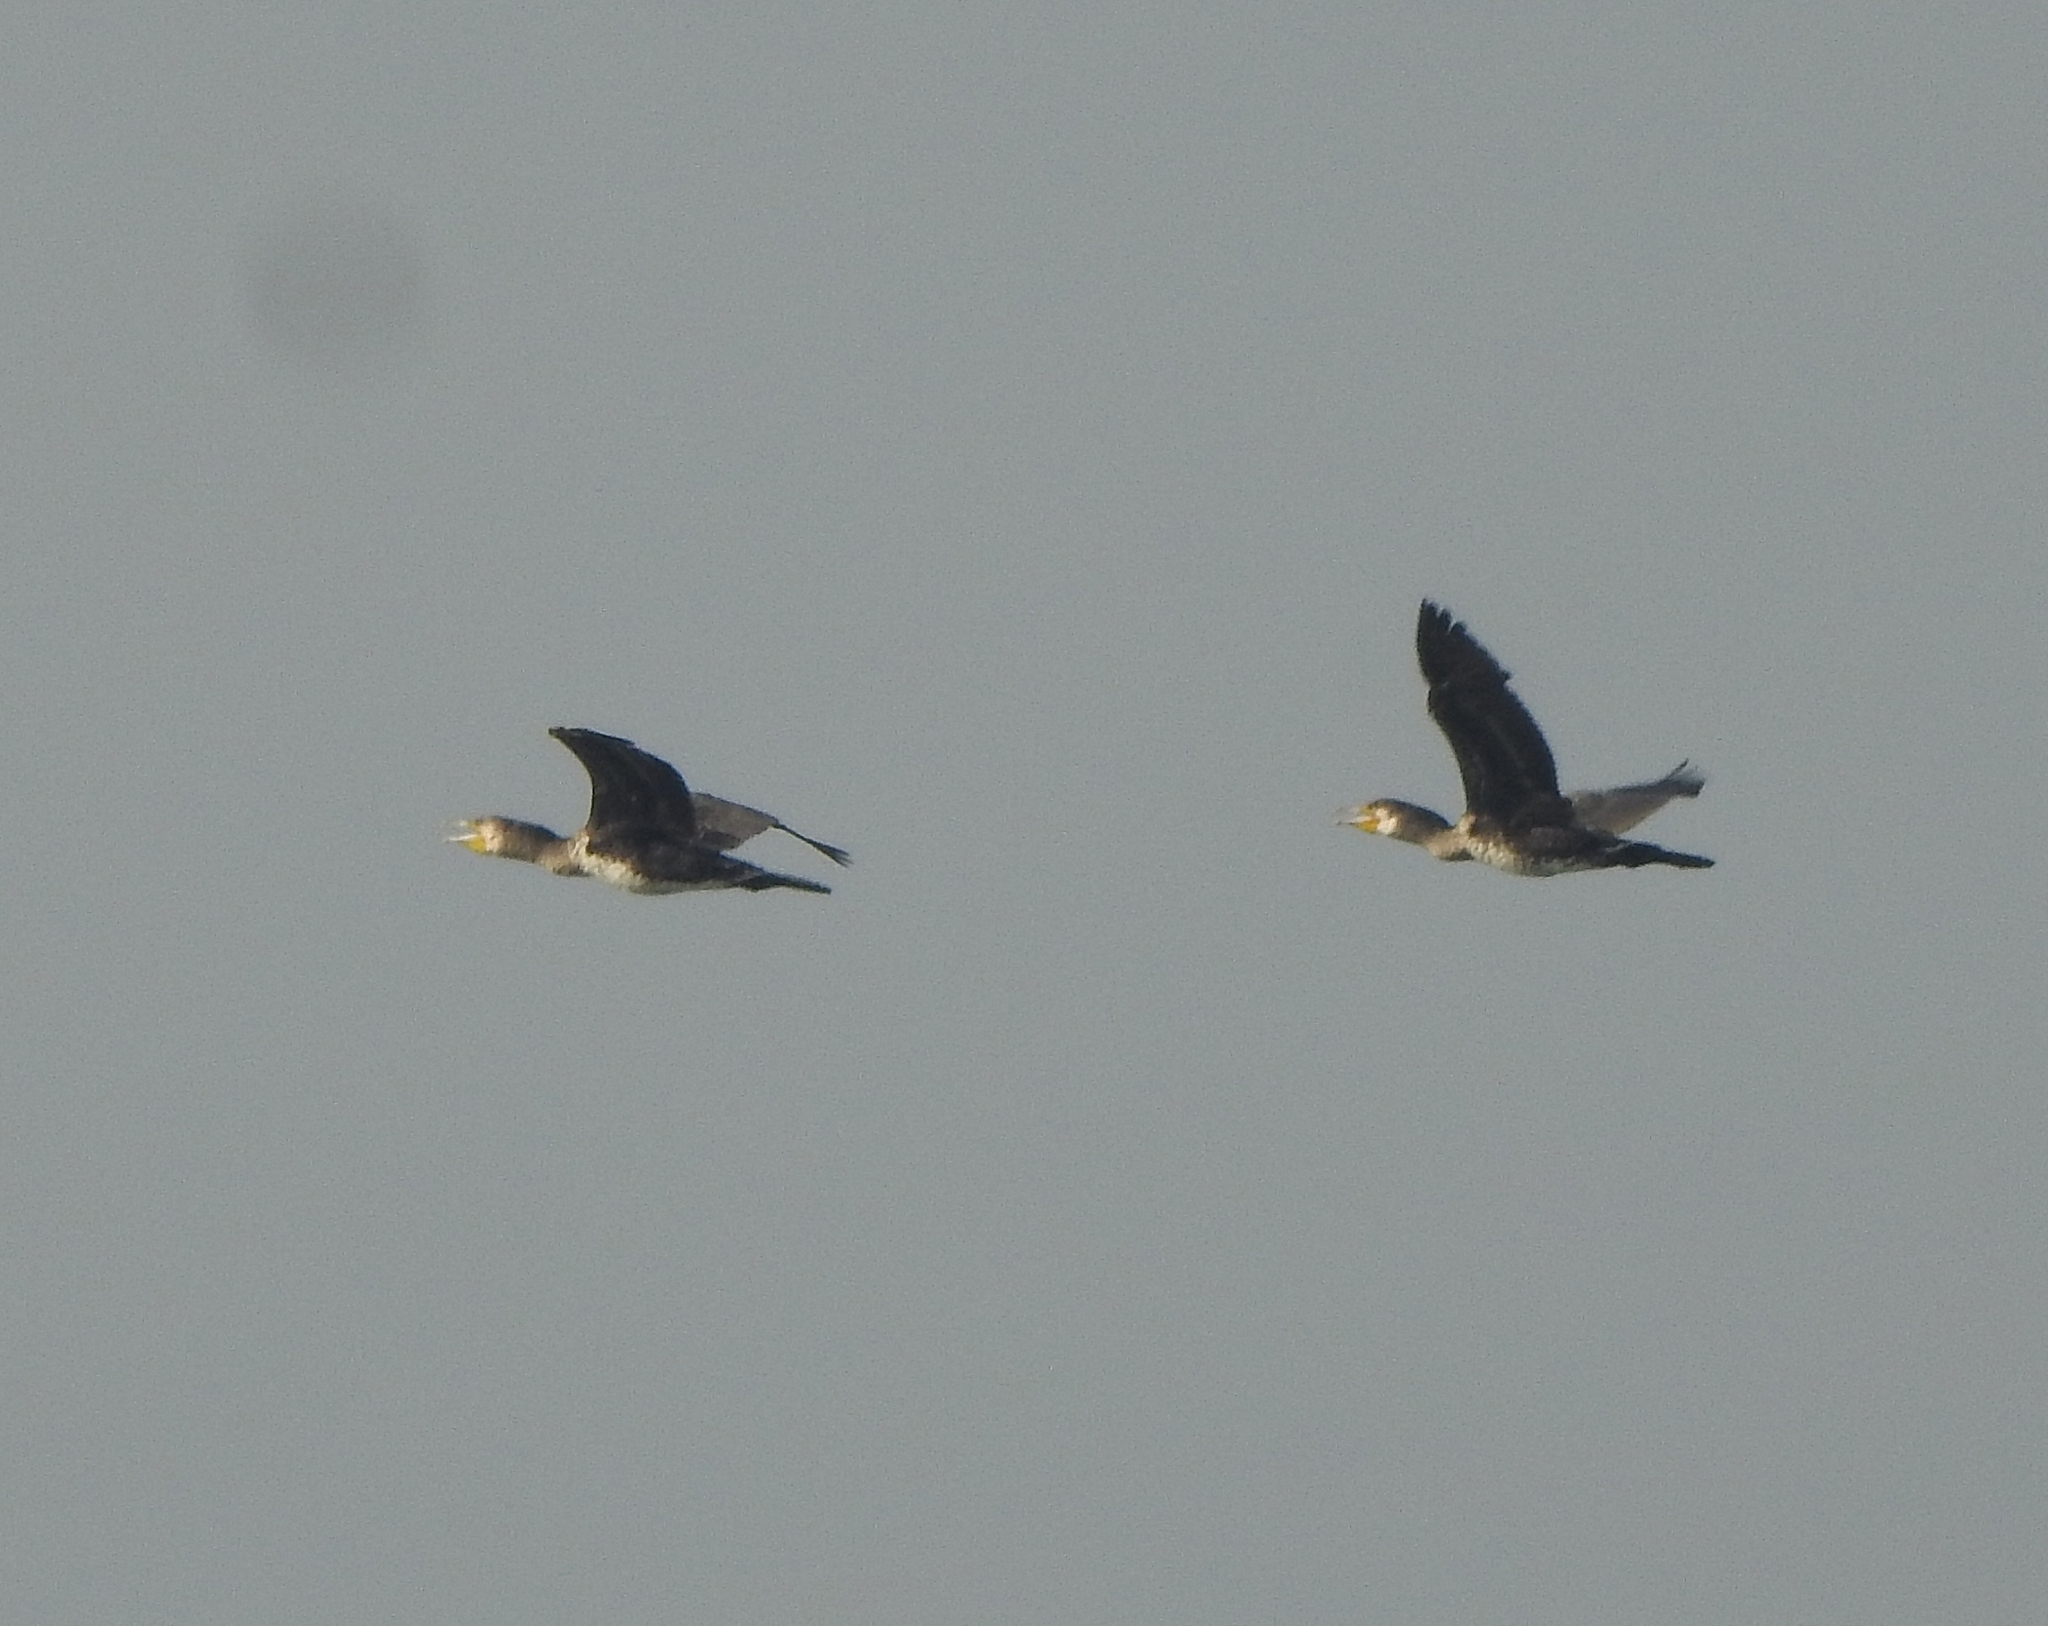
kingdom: Animalia
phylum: Chordata
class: Aves
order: Suliformes
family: Phalacrocoracidae
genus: Phalacrocorax
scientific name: Phalacrocorax carbo
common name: Great cormorant
